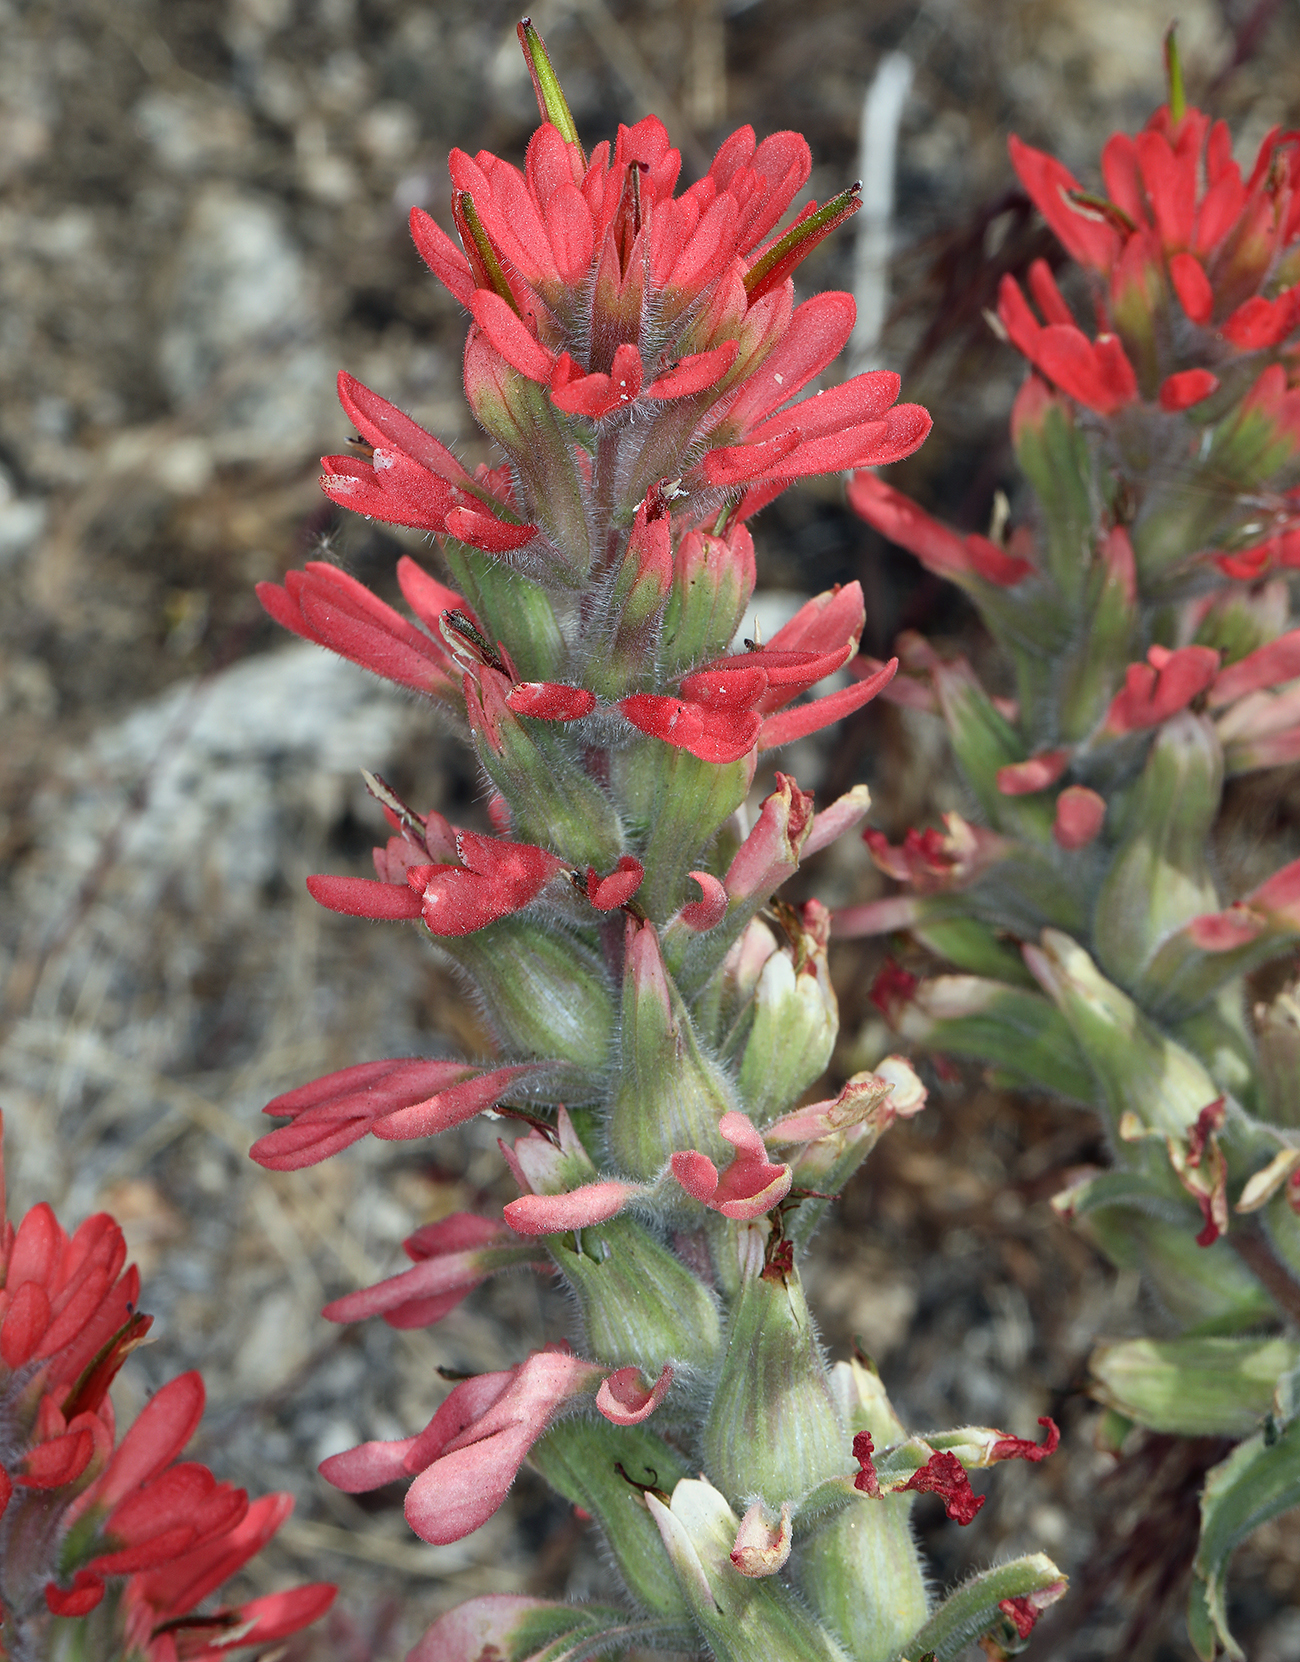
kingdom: Plantae
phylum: Tracheophyta
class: Magnoliopsida
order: Lamiales
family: Orobanchaceae
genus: Castilleja
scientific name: Castilleja chromosa
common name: Desert paintbrush
